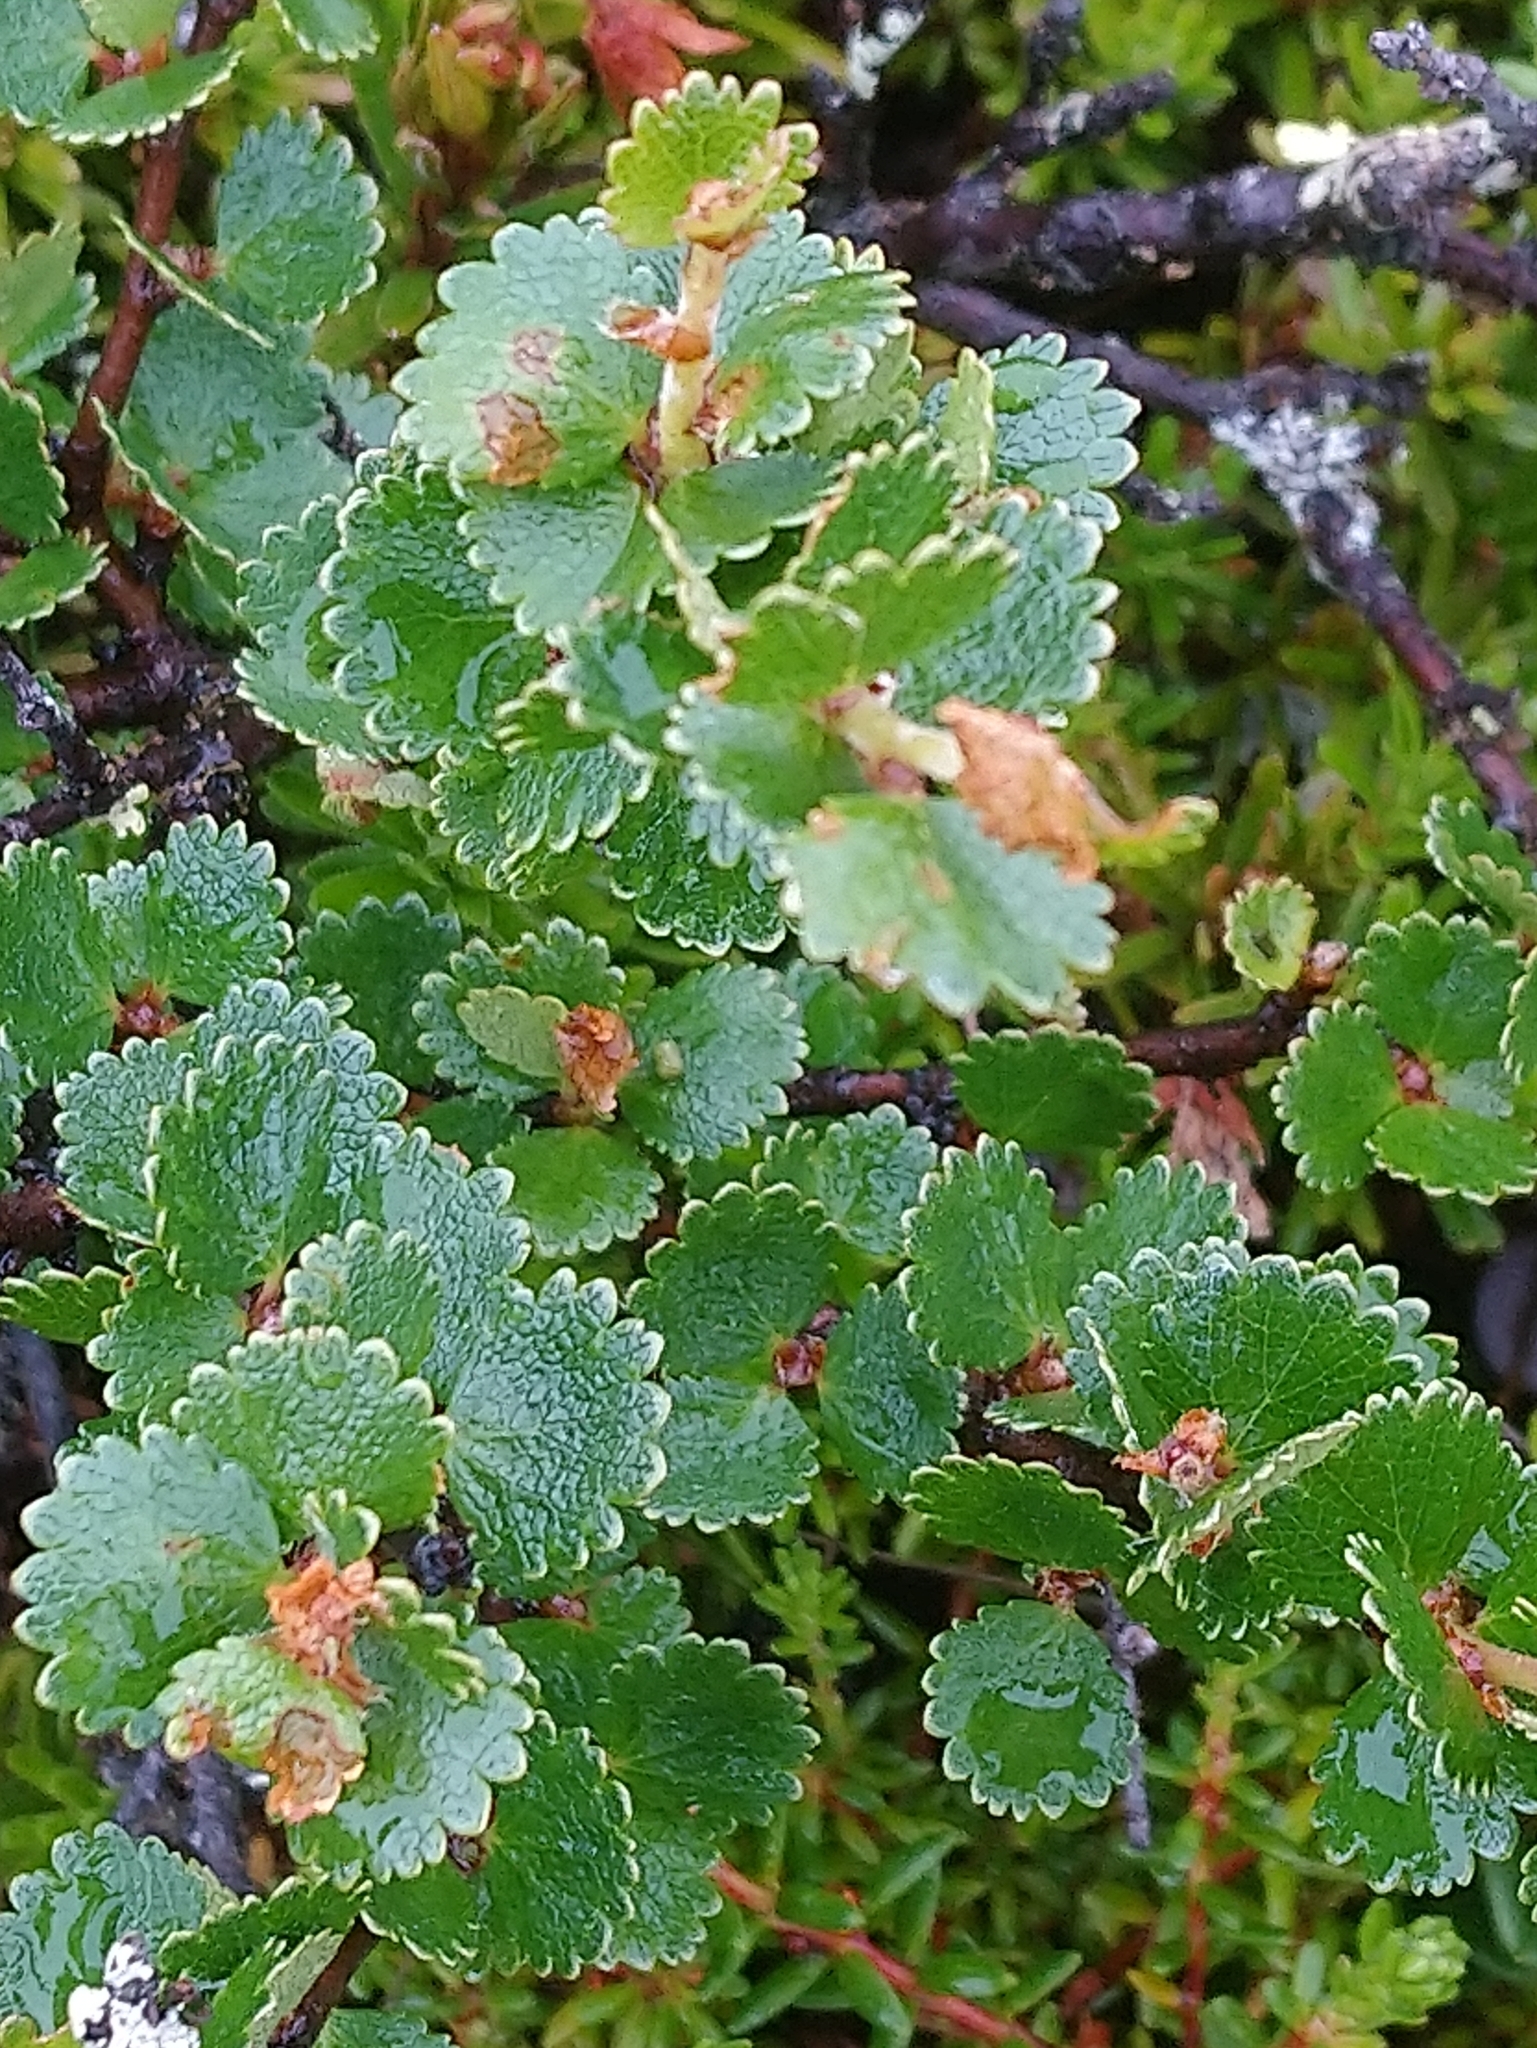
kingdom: Plantae
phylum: Tracheophyta
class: Magnoliopsida
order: Fagales
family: Betulaceae
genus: Betula
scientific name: Betula nana
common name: Arctic dwarf birch
